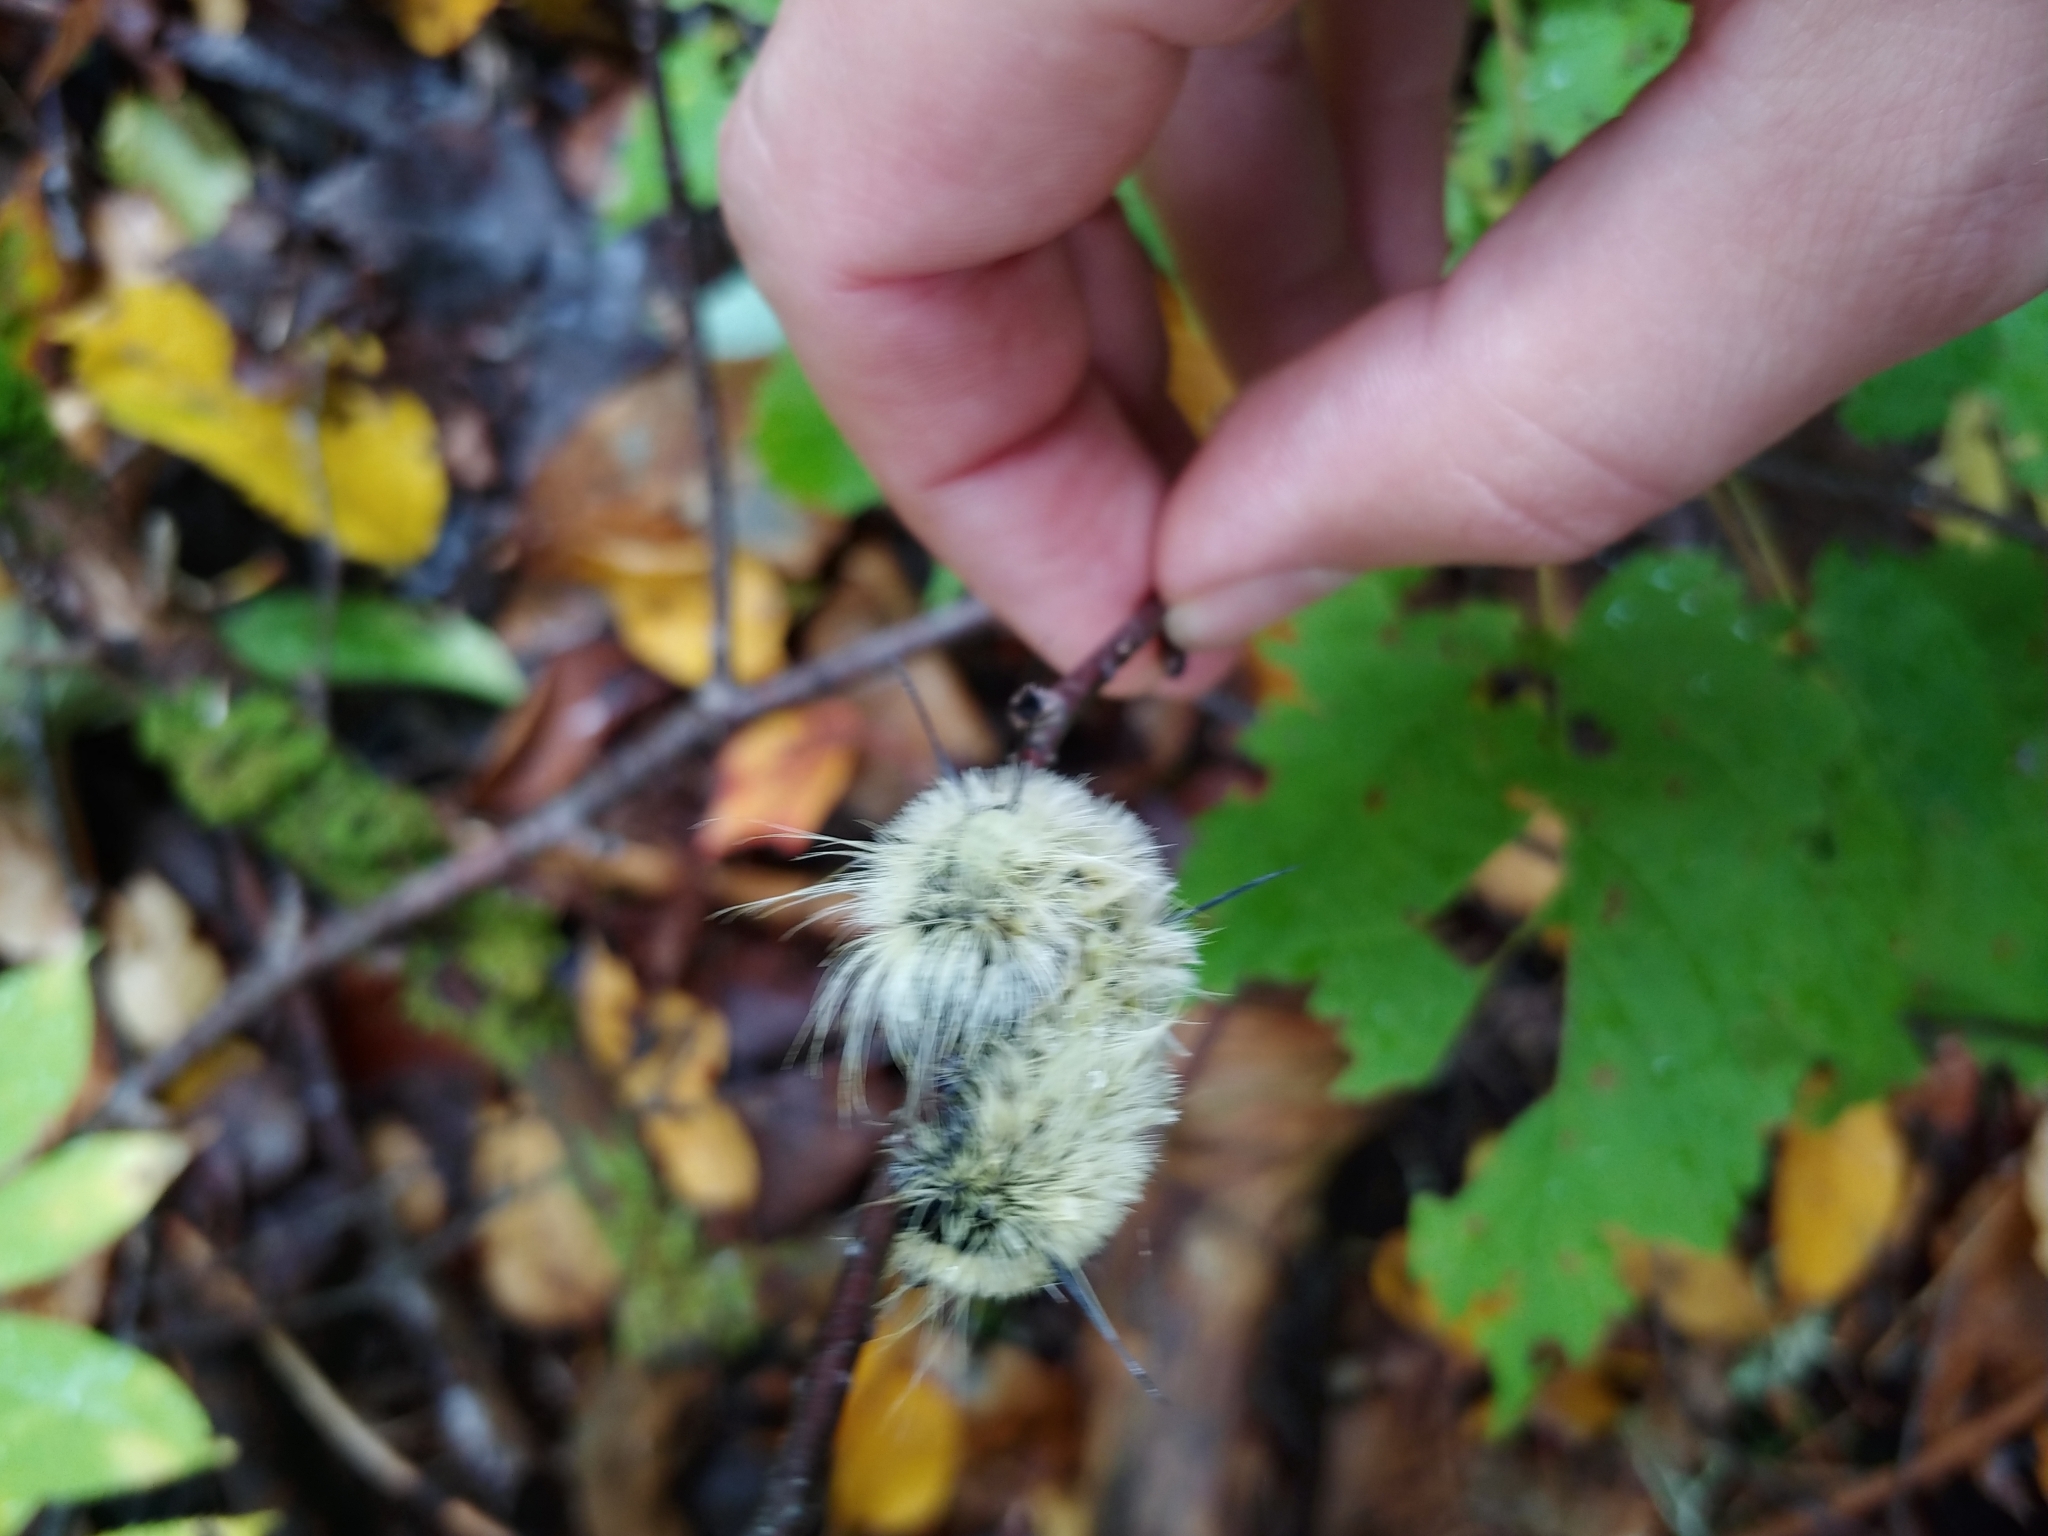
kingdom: Animalia
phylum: Arthropoda
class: Insecta
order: Lepidoptera
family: Noctuidae
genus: Acronicta
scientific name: Acronicta americana
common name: American dagger
